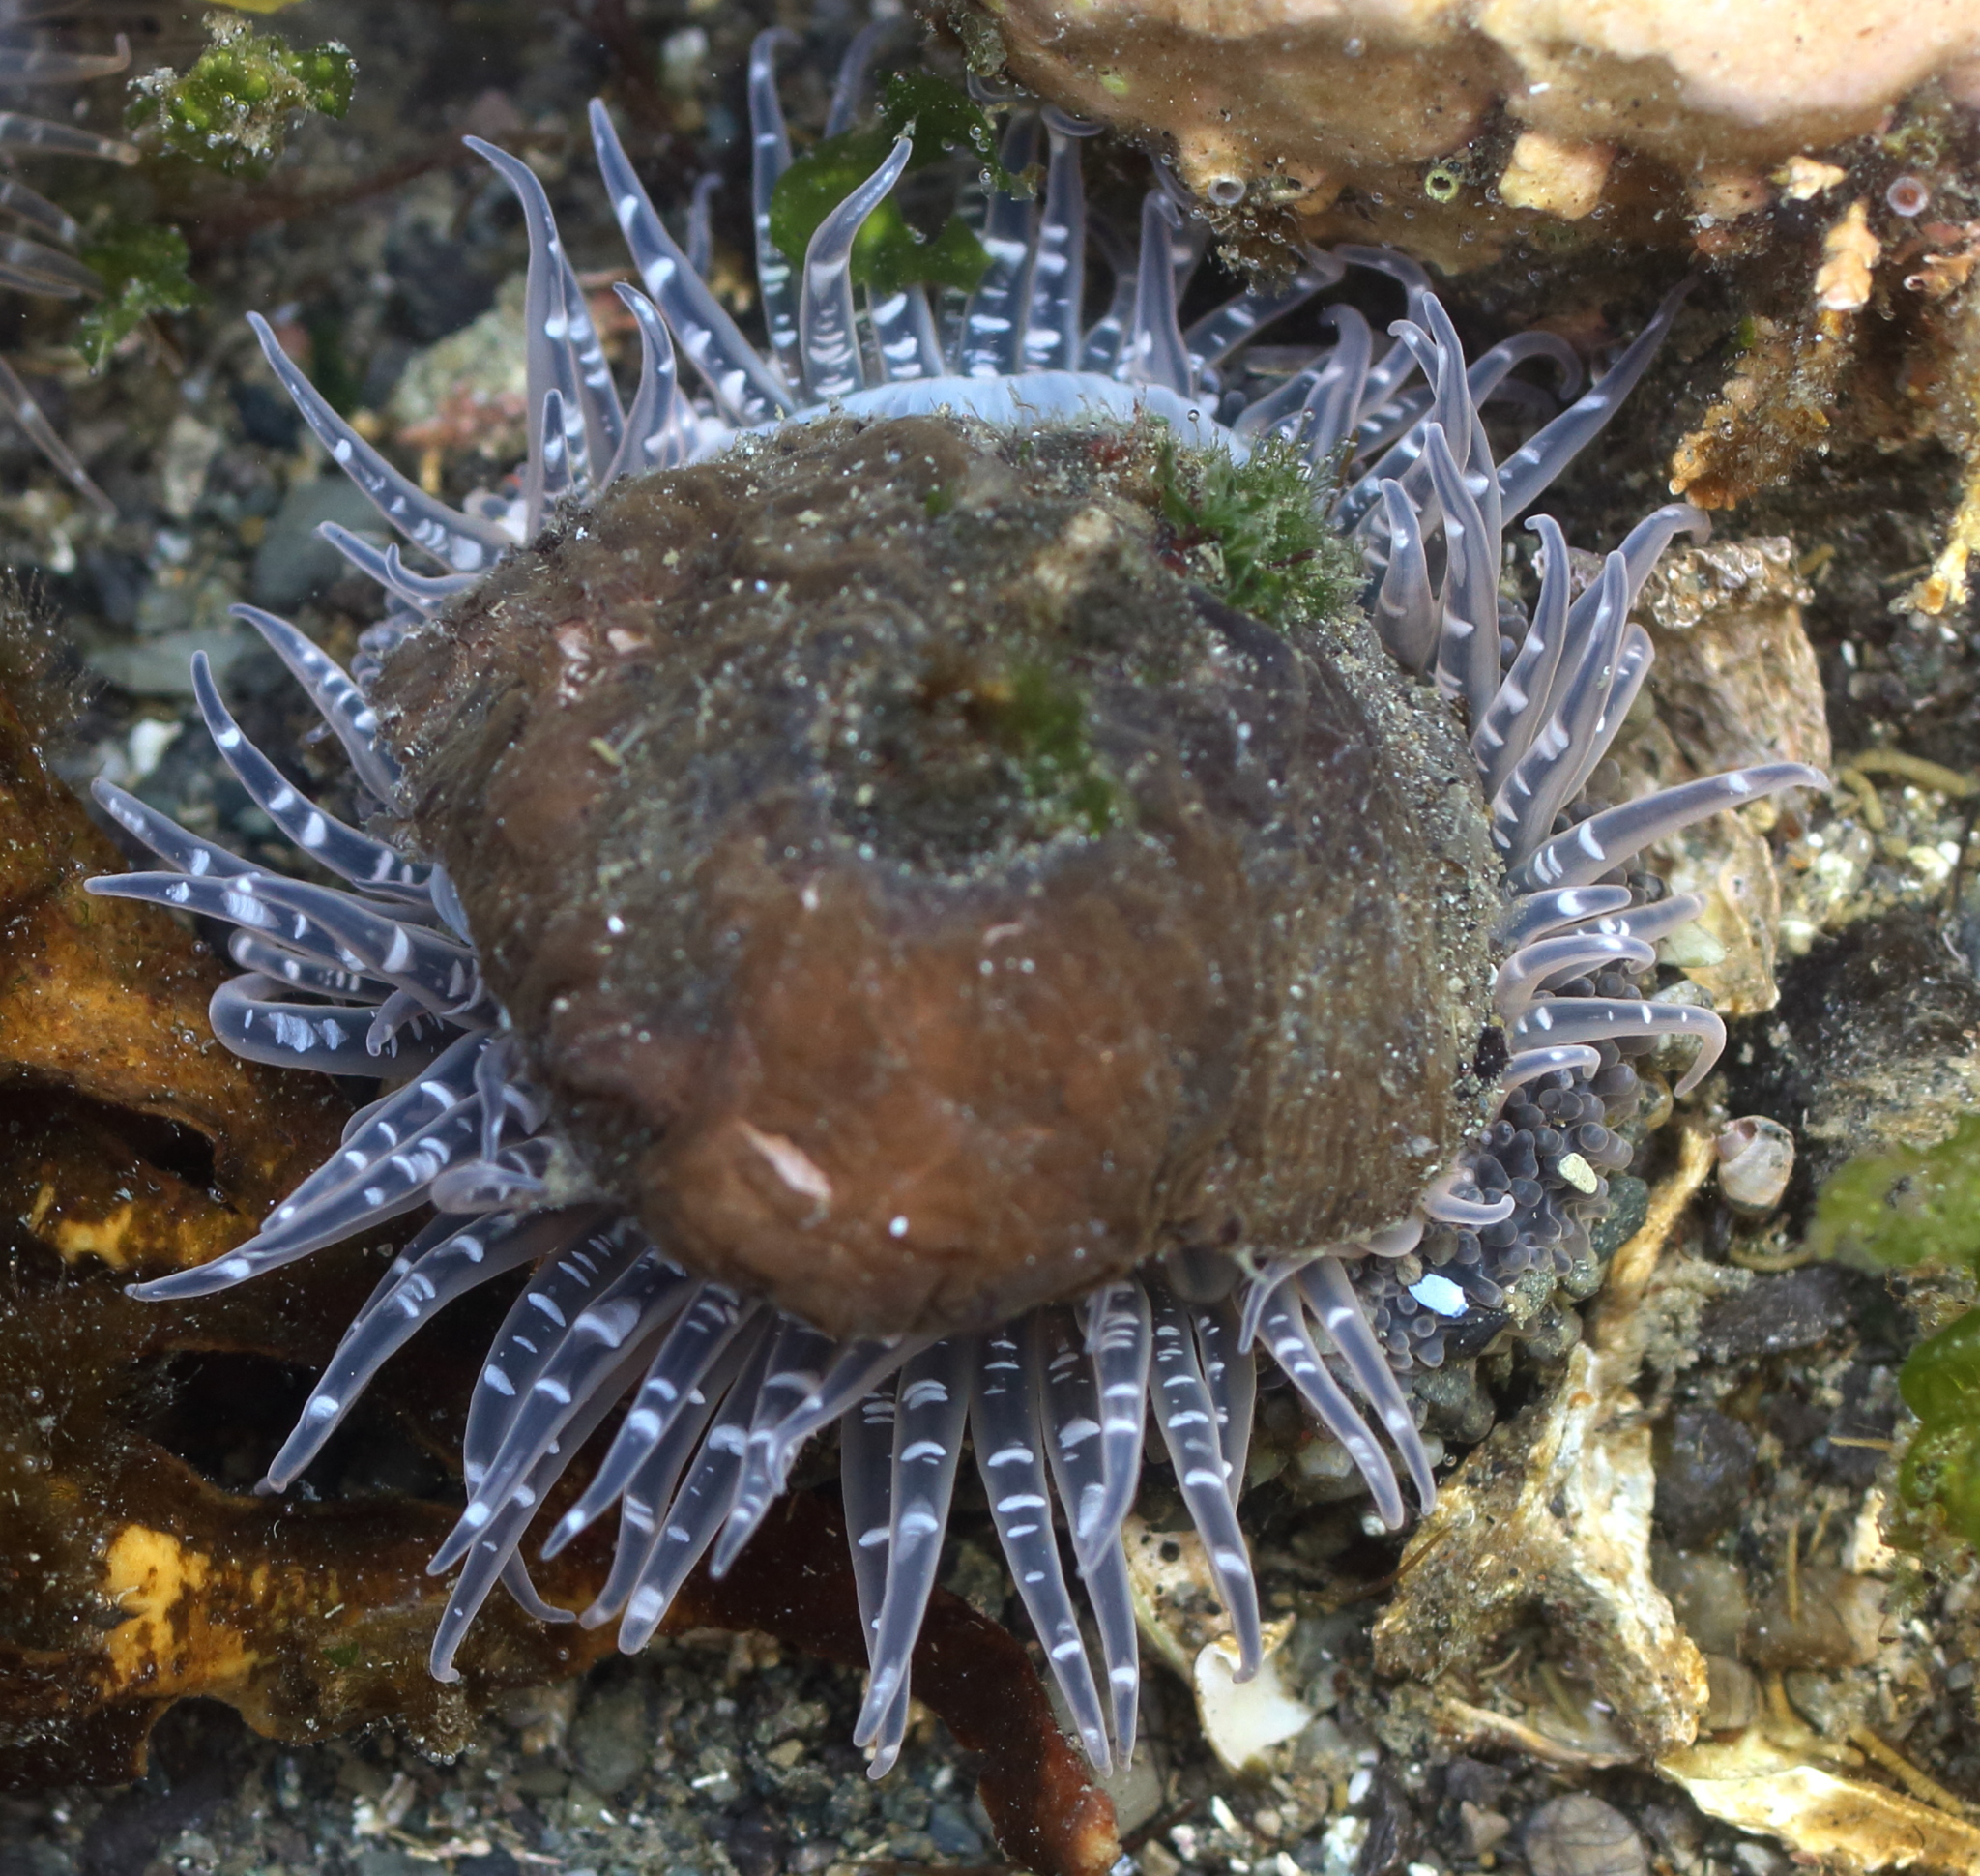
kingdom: Animalia
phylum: Cnidaria
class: Anthozoa
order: Actiniaria
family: Actiniidae
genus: Anthopleura
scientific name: Anthopleura artemisia
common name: Buried sea anemone
